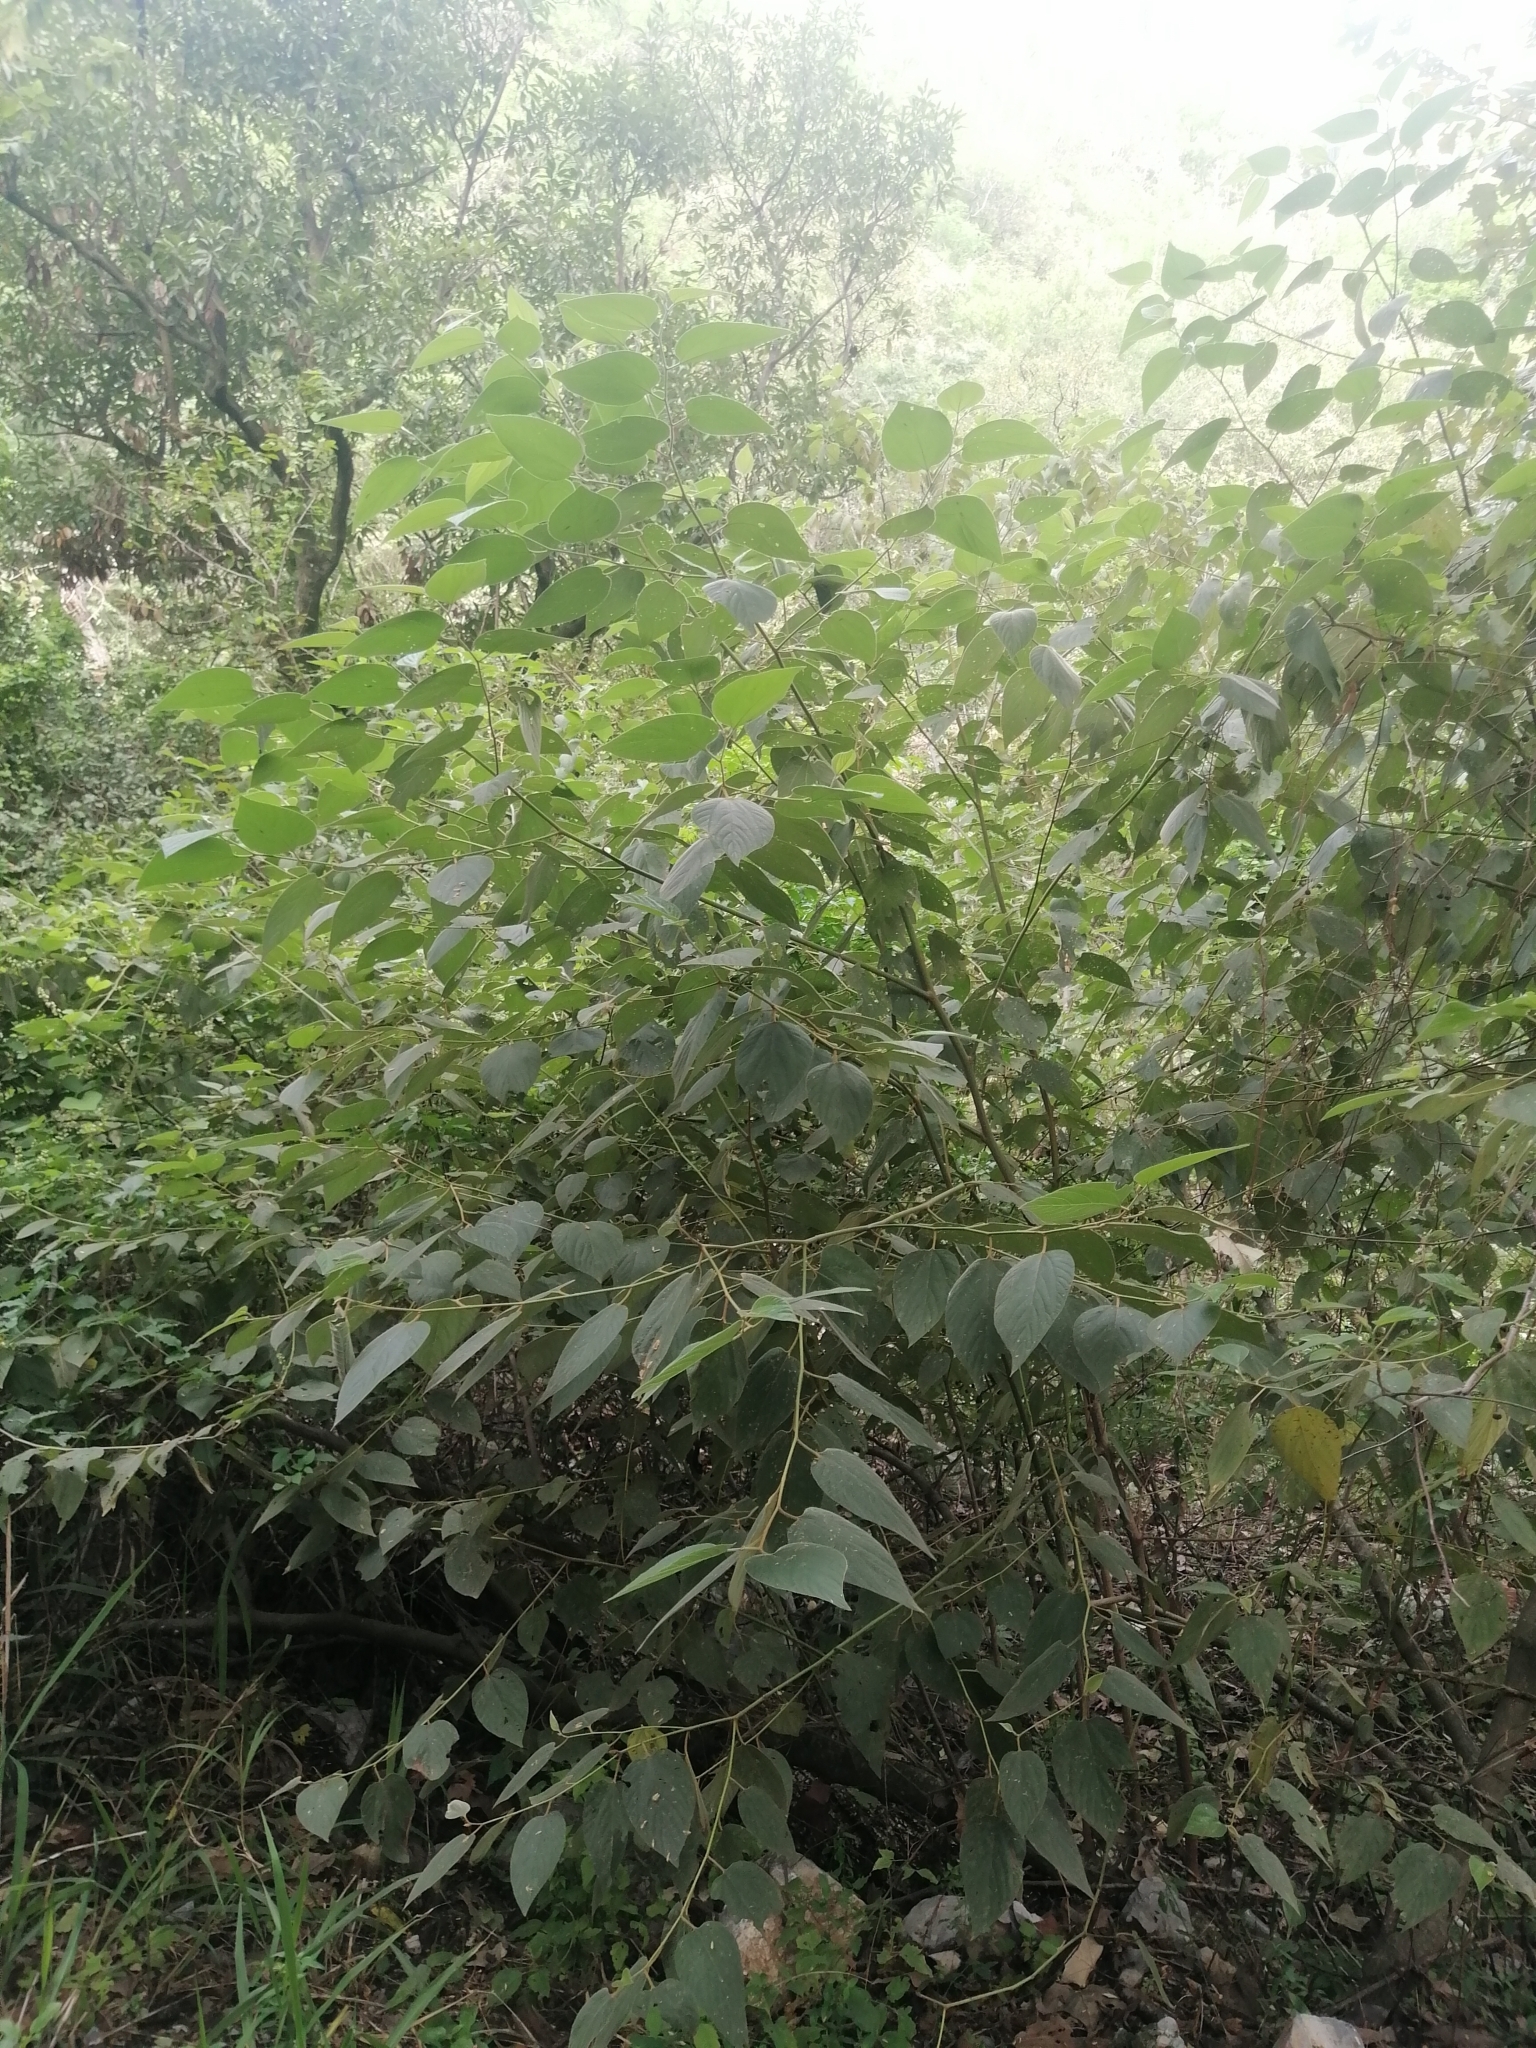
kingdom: Plantae
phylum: Tracheophyta
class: Magnoliopsida
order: Rosales
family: Rhamnaceae
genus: Colubrina
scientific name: Colubrina greggii
